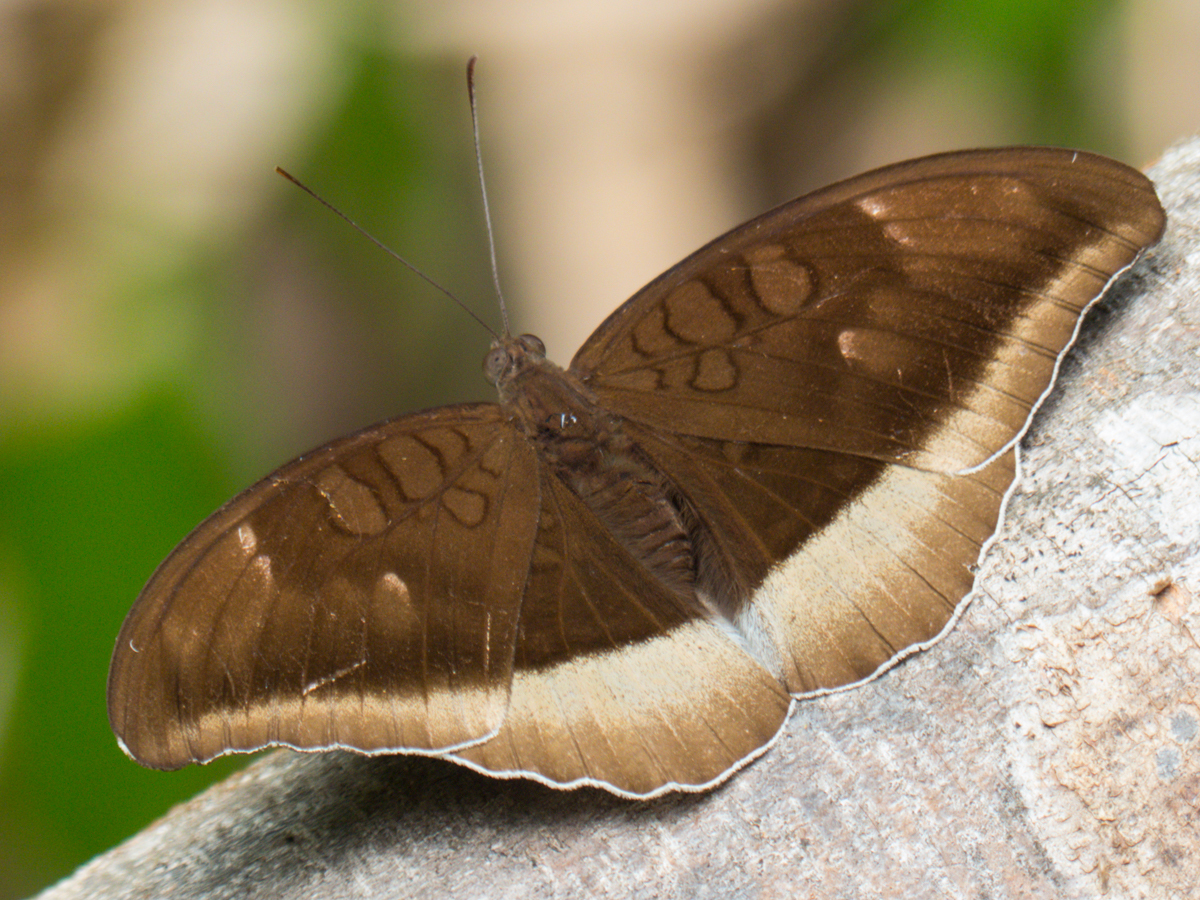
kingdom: Animalia
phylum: Arthropoda
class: Insecta
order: Lepidoptera
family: Nymphalidae
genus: Tanaecia
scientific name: Tanaecia lepidea
